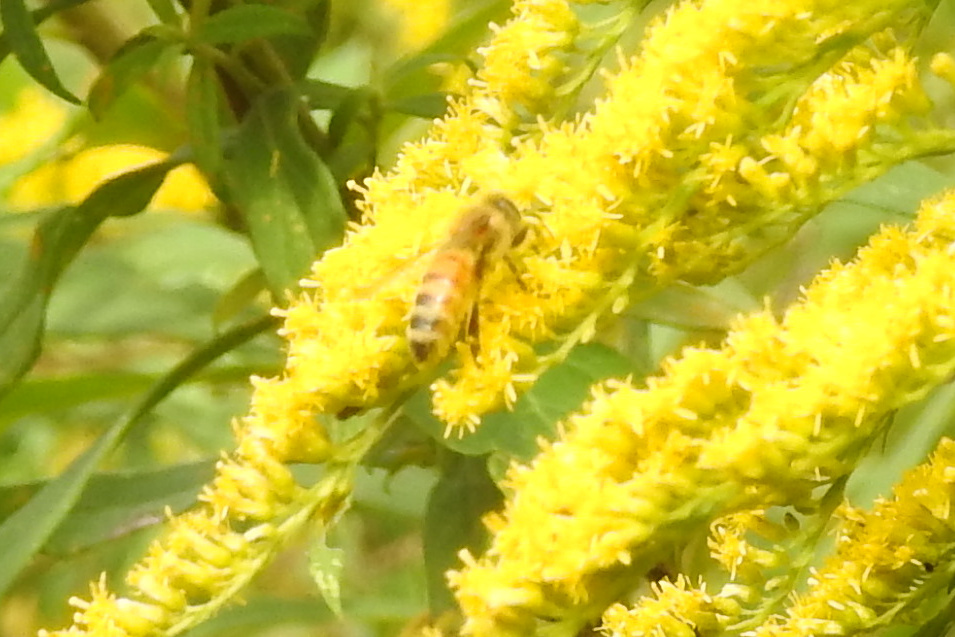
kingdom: Animalia
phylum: Arthropoda
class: Insecta
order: Hymenoptera
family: Apidae
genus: Apis
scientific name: Apis mellifera
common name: Honey bee
